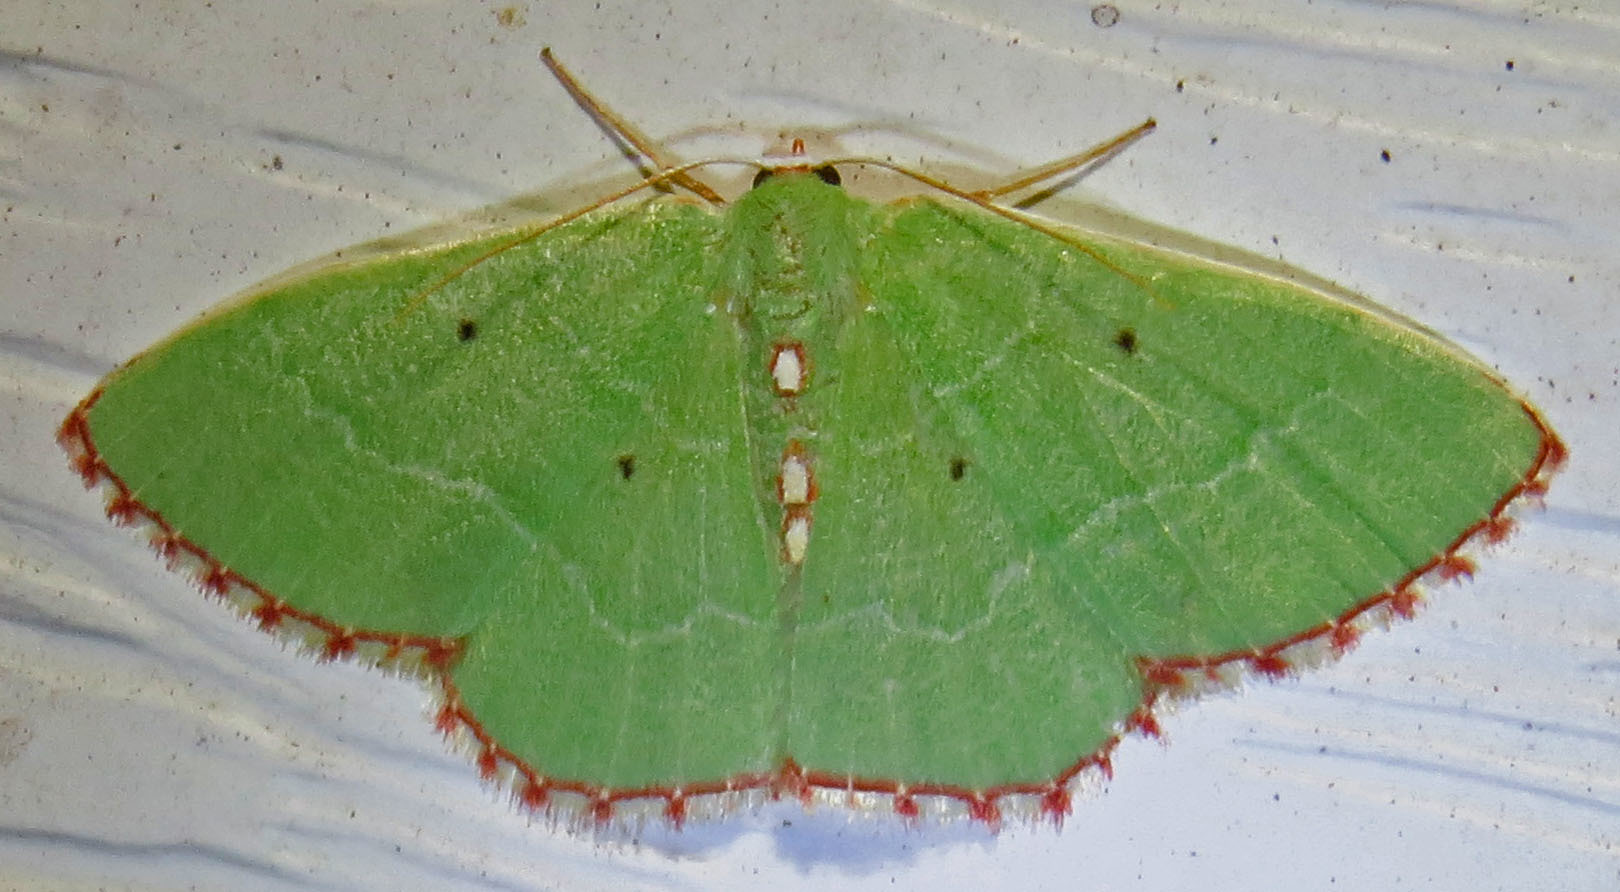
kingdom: Animalia
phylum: Arthropoda
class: Insecta
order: Lepidoptera
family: Geometridae
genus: Nemoria
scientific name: Nemoria lixaria
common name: Red-bordered emerald
